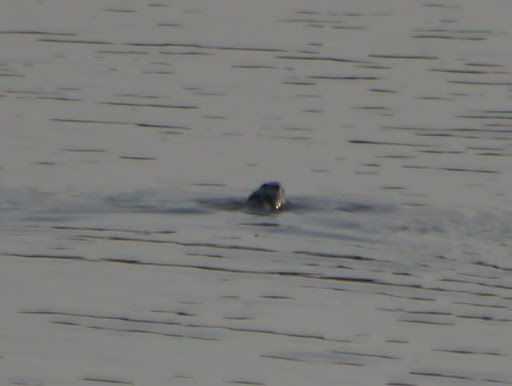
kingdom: Animalia
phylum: Chordata
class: Squamata
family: Colubridae
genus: Nerodia
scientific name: Nerodia sipedon
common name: Northern water snake
